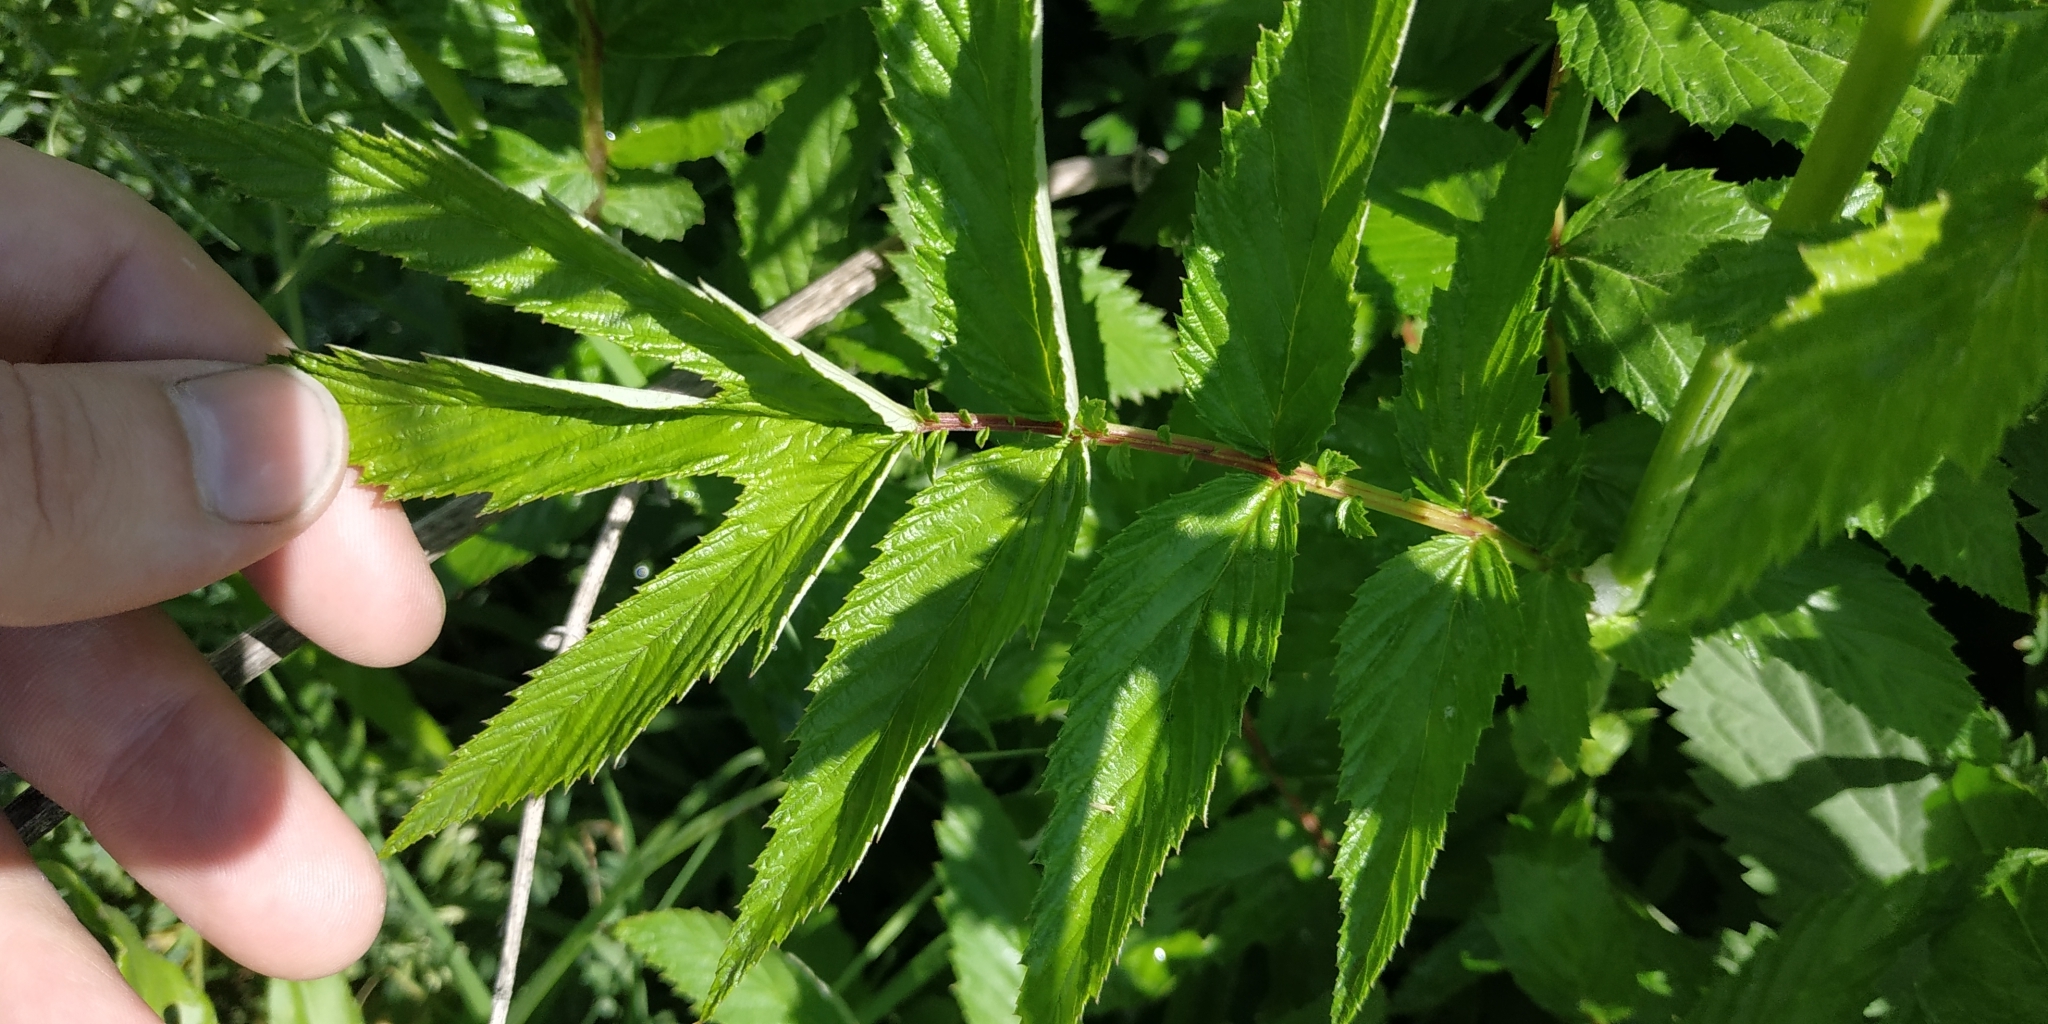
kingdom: Plantae
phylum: Tracheophyta
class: Magnoliopsida
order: Rosales
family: Rosaceae
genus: Filipendula
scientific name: Filipendula ulmaria
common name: Meadowsweet
